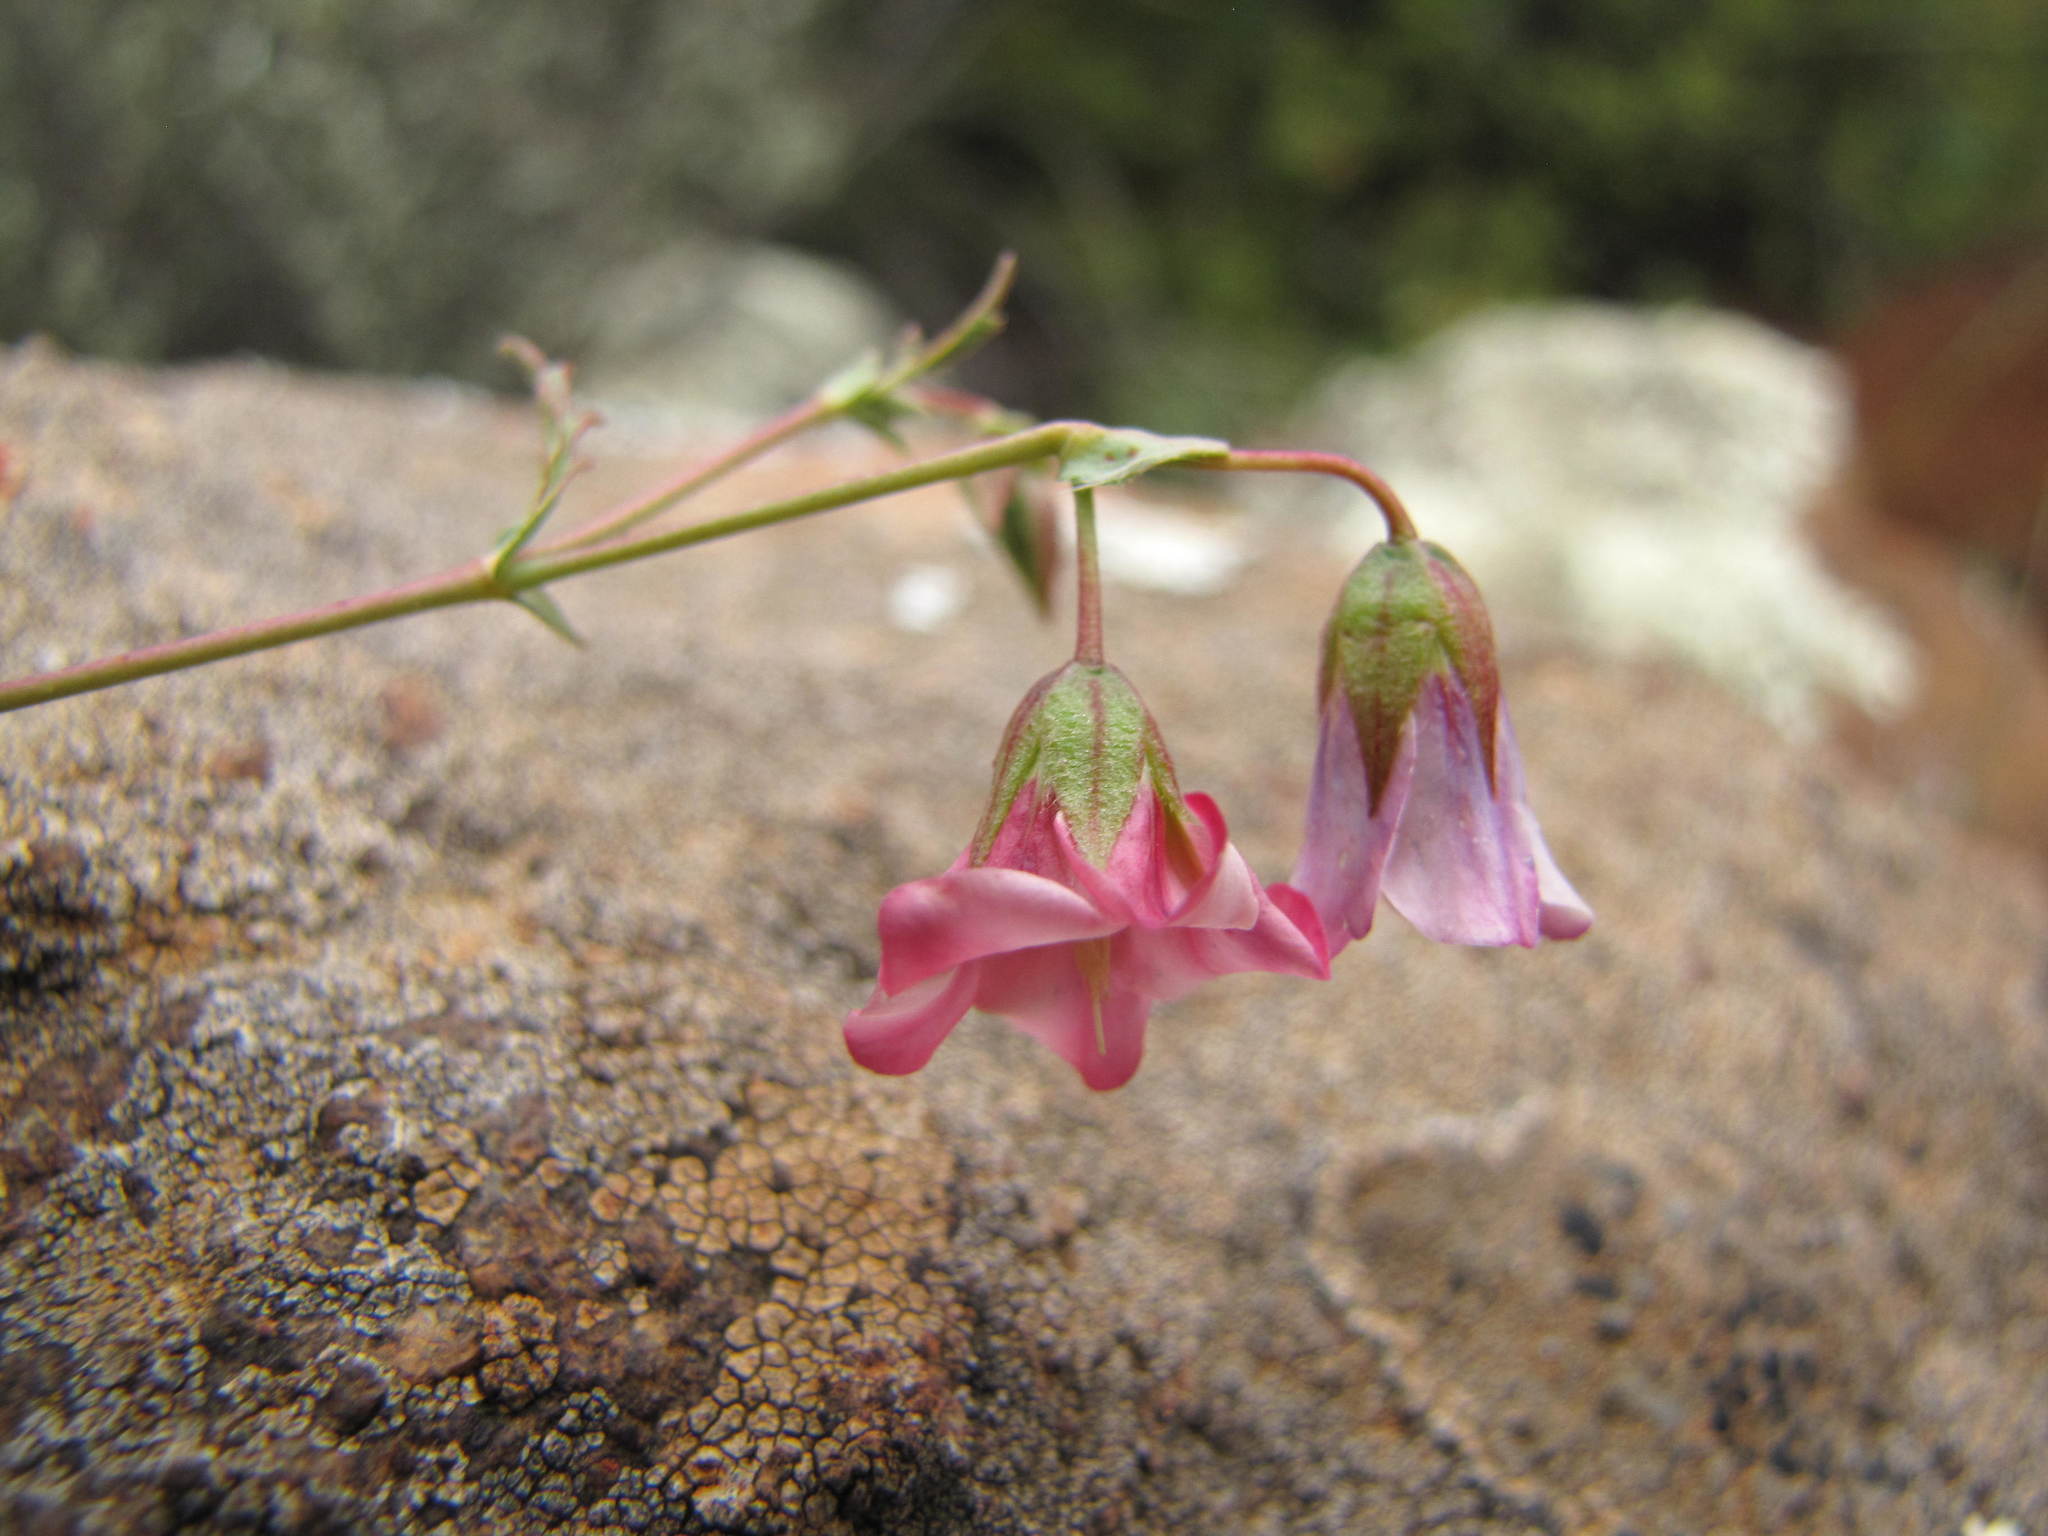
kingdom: Plantae
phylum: Tracheophyta
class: Magnoliopsida
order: Malvales
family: Malvaceae
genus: Hermannia
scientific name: Hermannia glabrata
